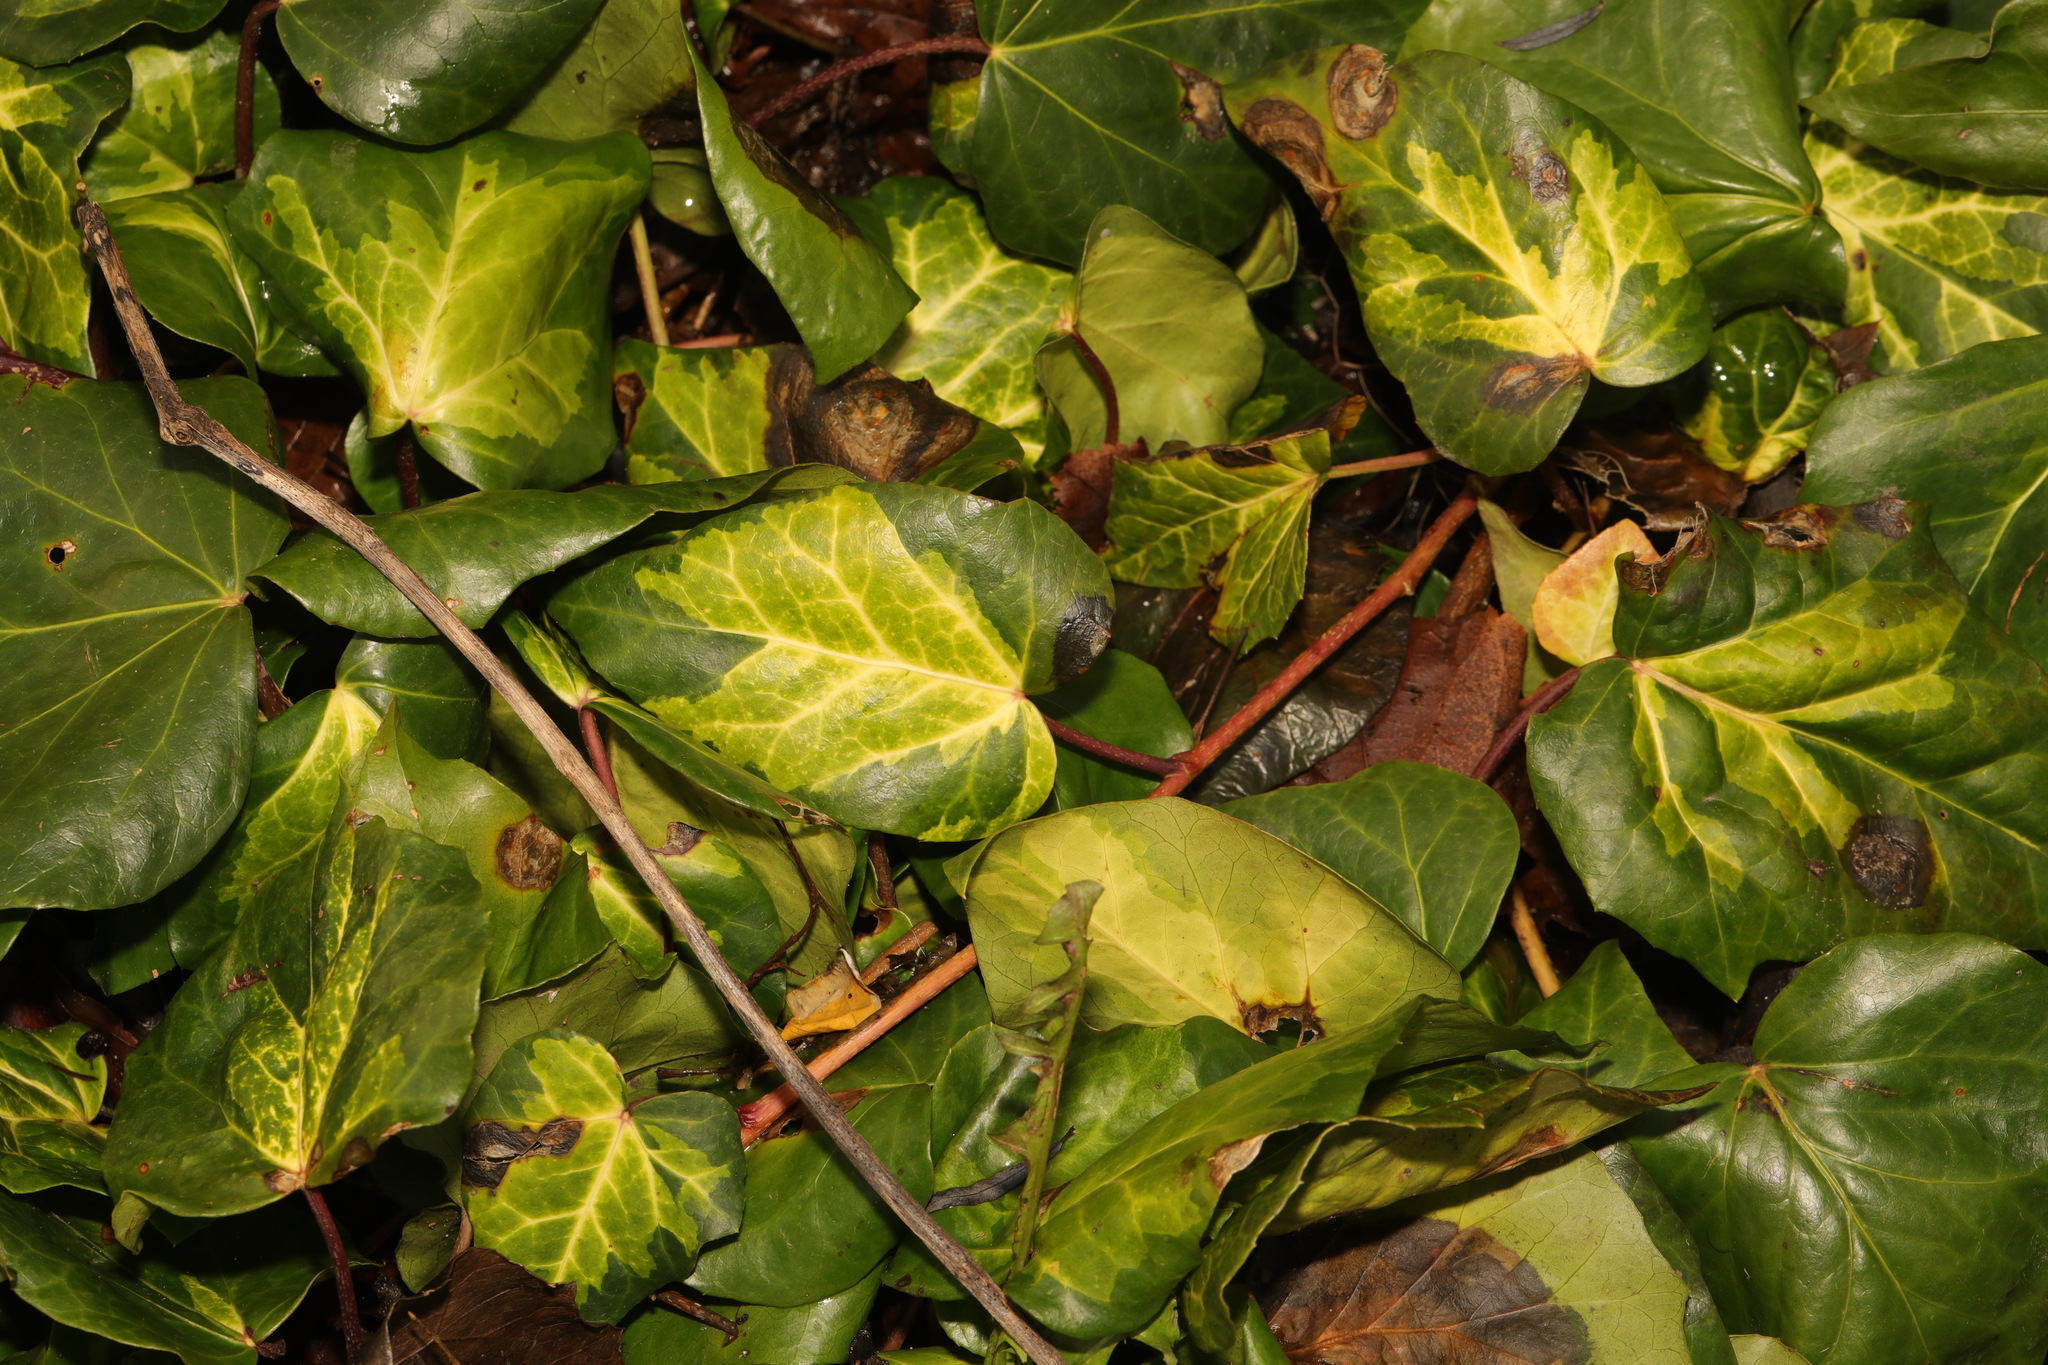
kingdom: Plantae
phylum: Tracheophyta
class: Magnoliopsida
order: Apiales
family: Araliaceae
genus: Hedera
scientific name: Hedera colchica
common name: Persian ivy
